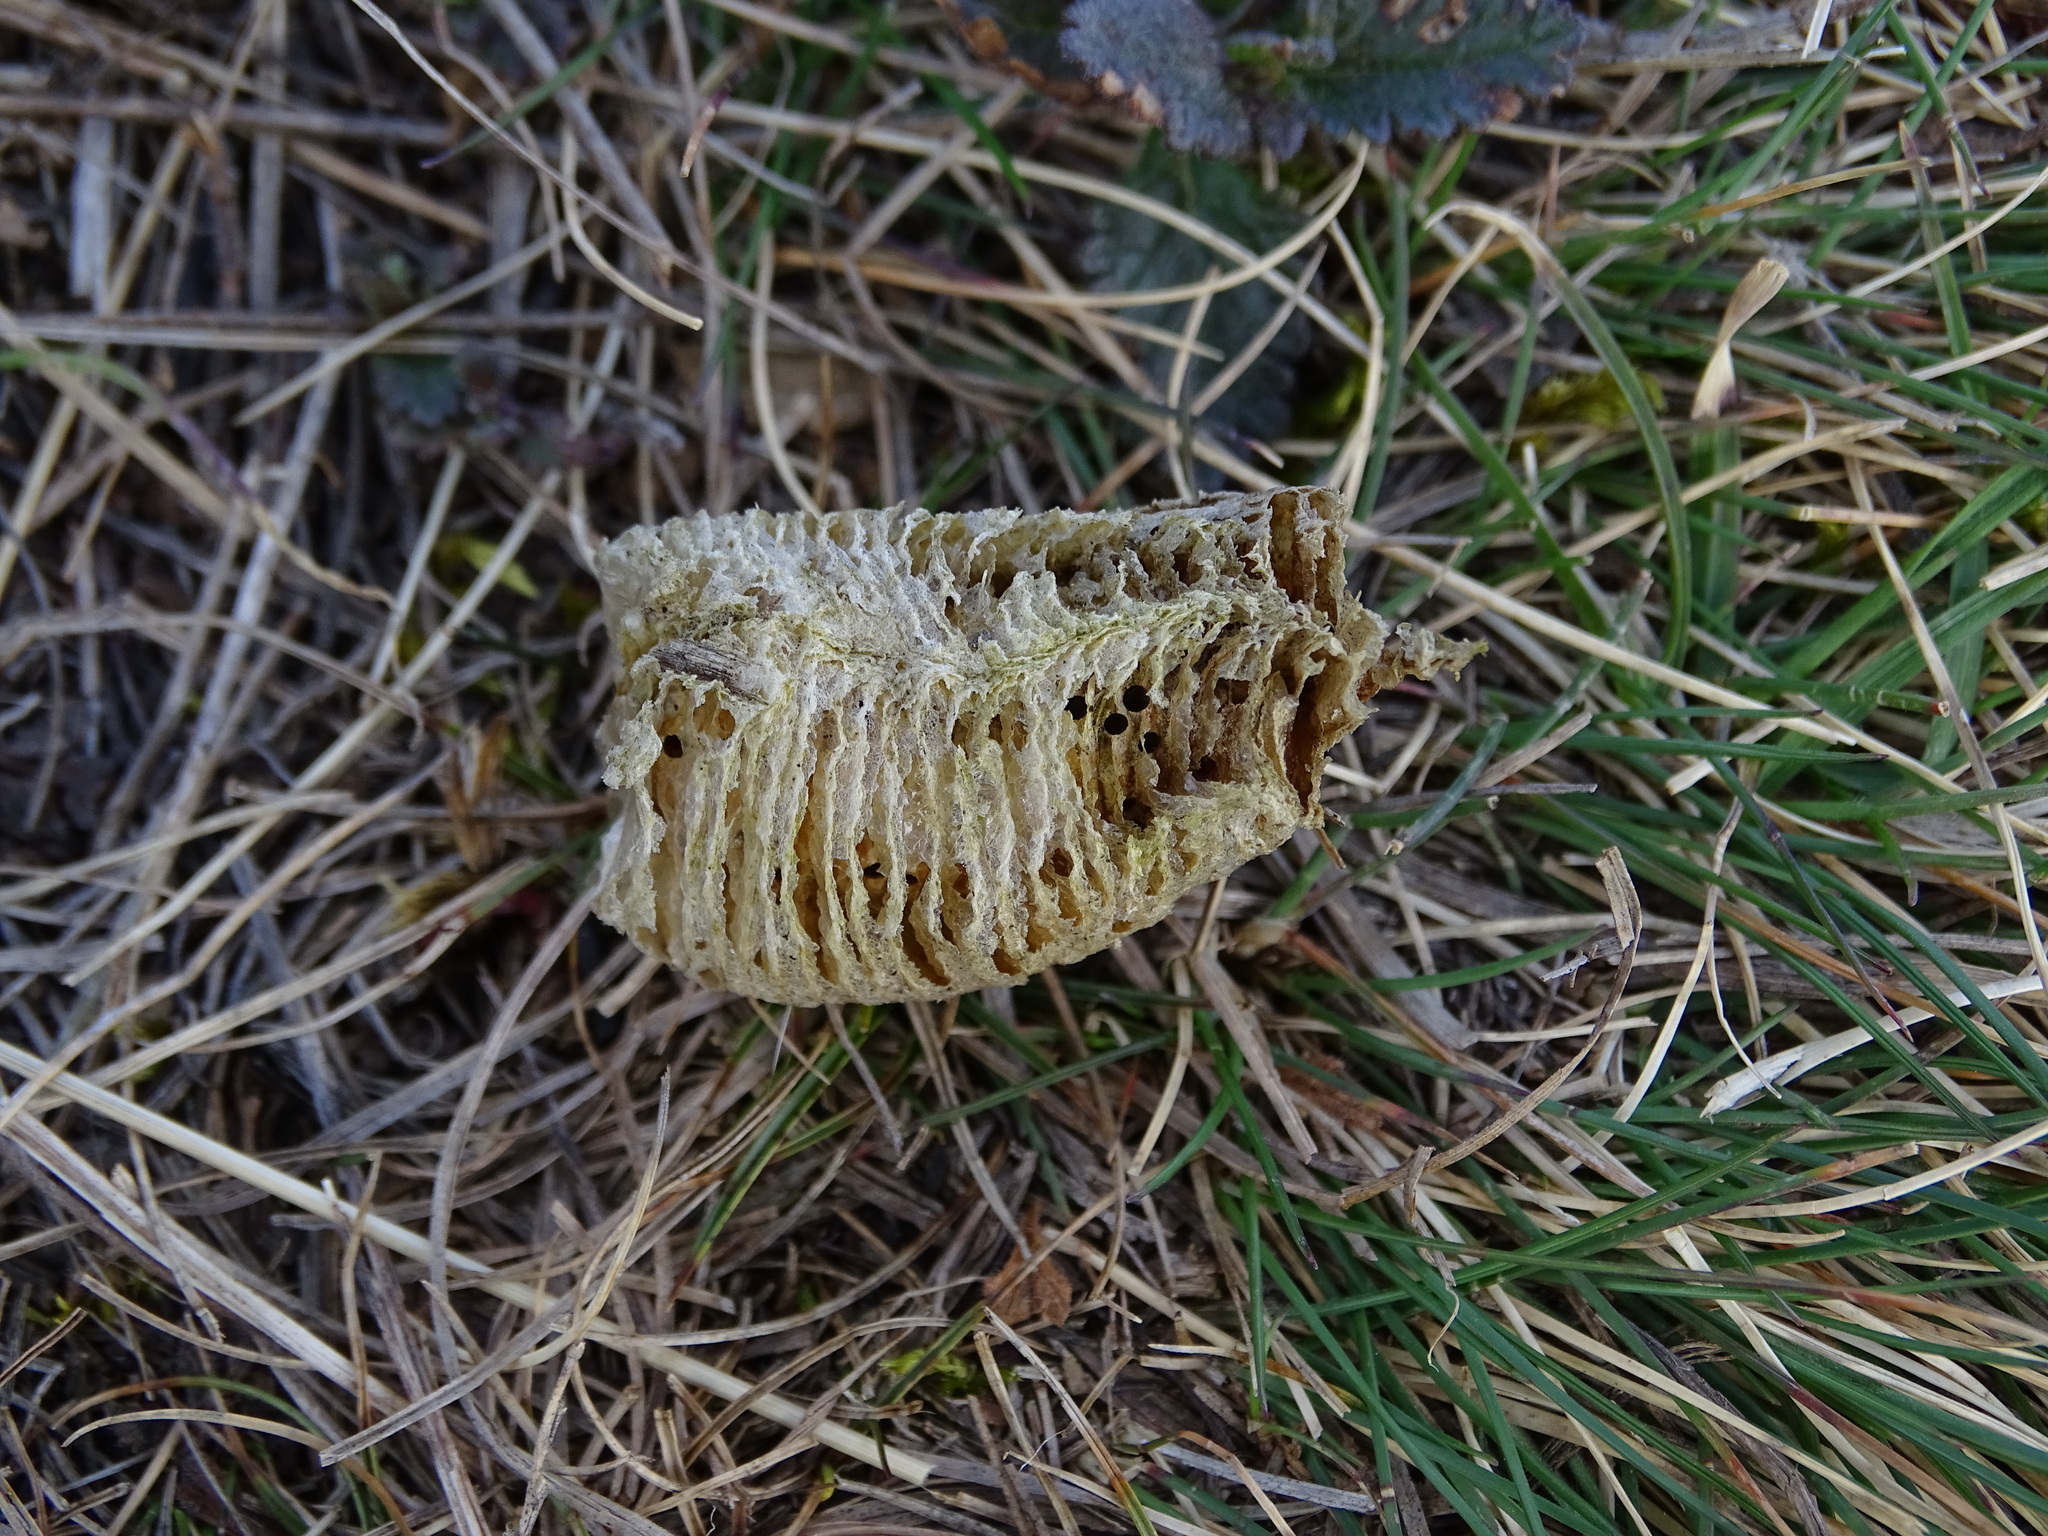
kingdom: Animalia
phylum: Arthropoda
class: Insecta
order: Mantodea
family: Mantidae
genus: Mantis
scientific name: Mantis religiosa
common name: Praying mantis
